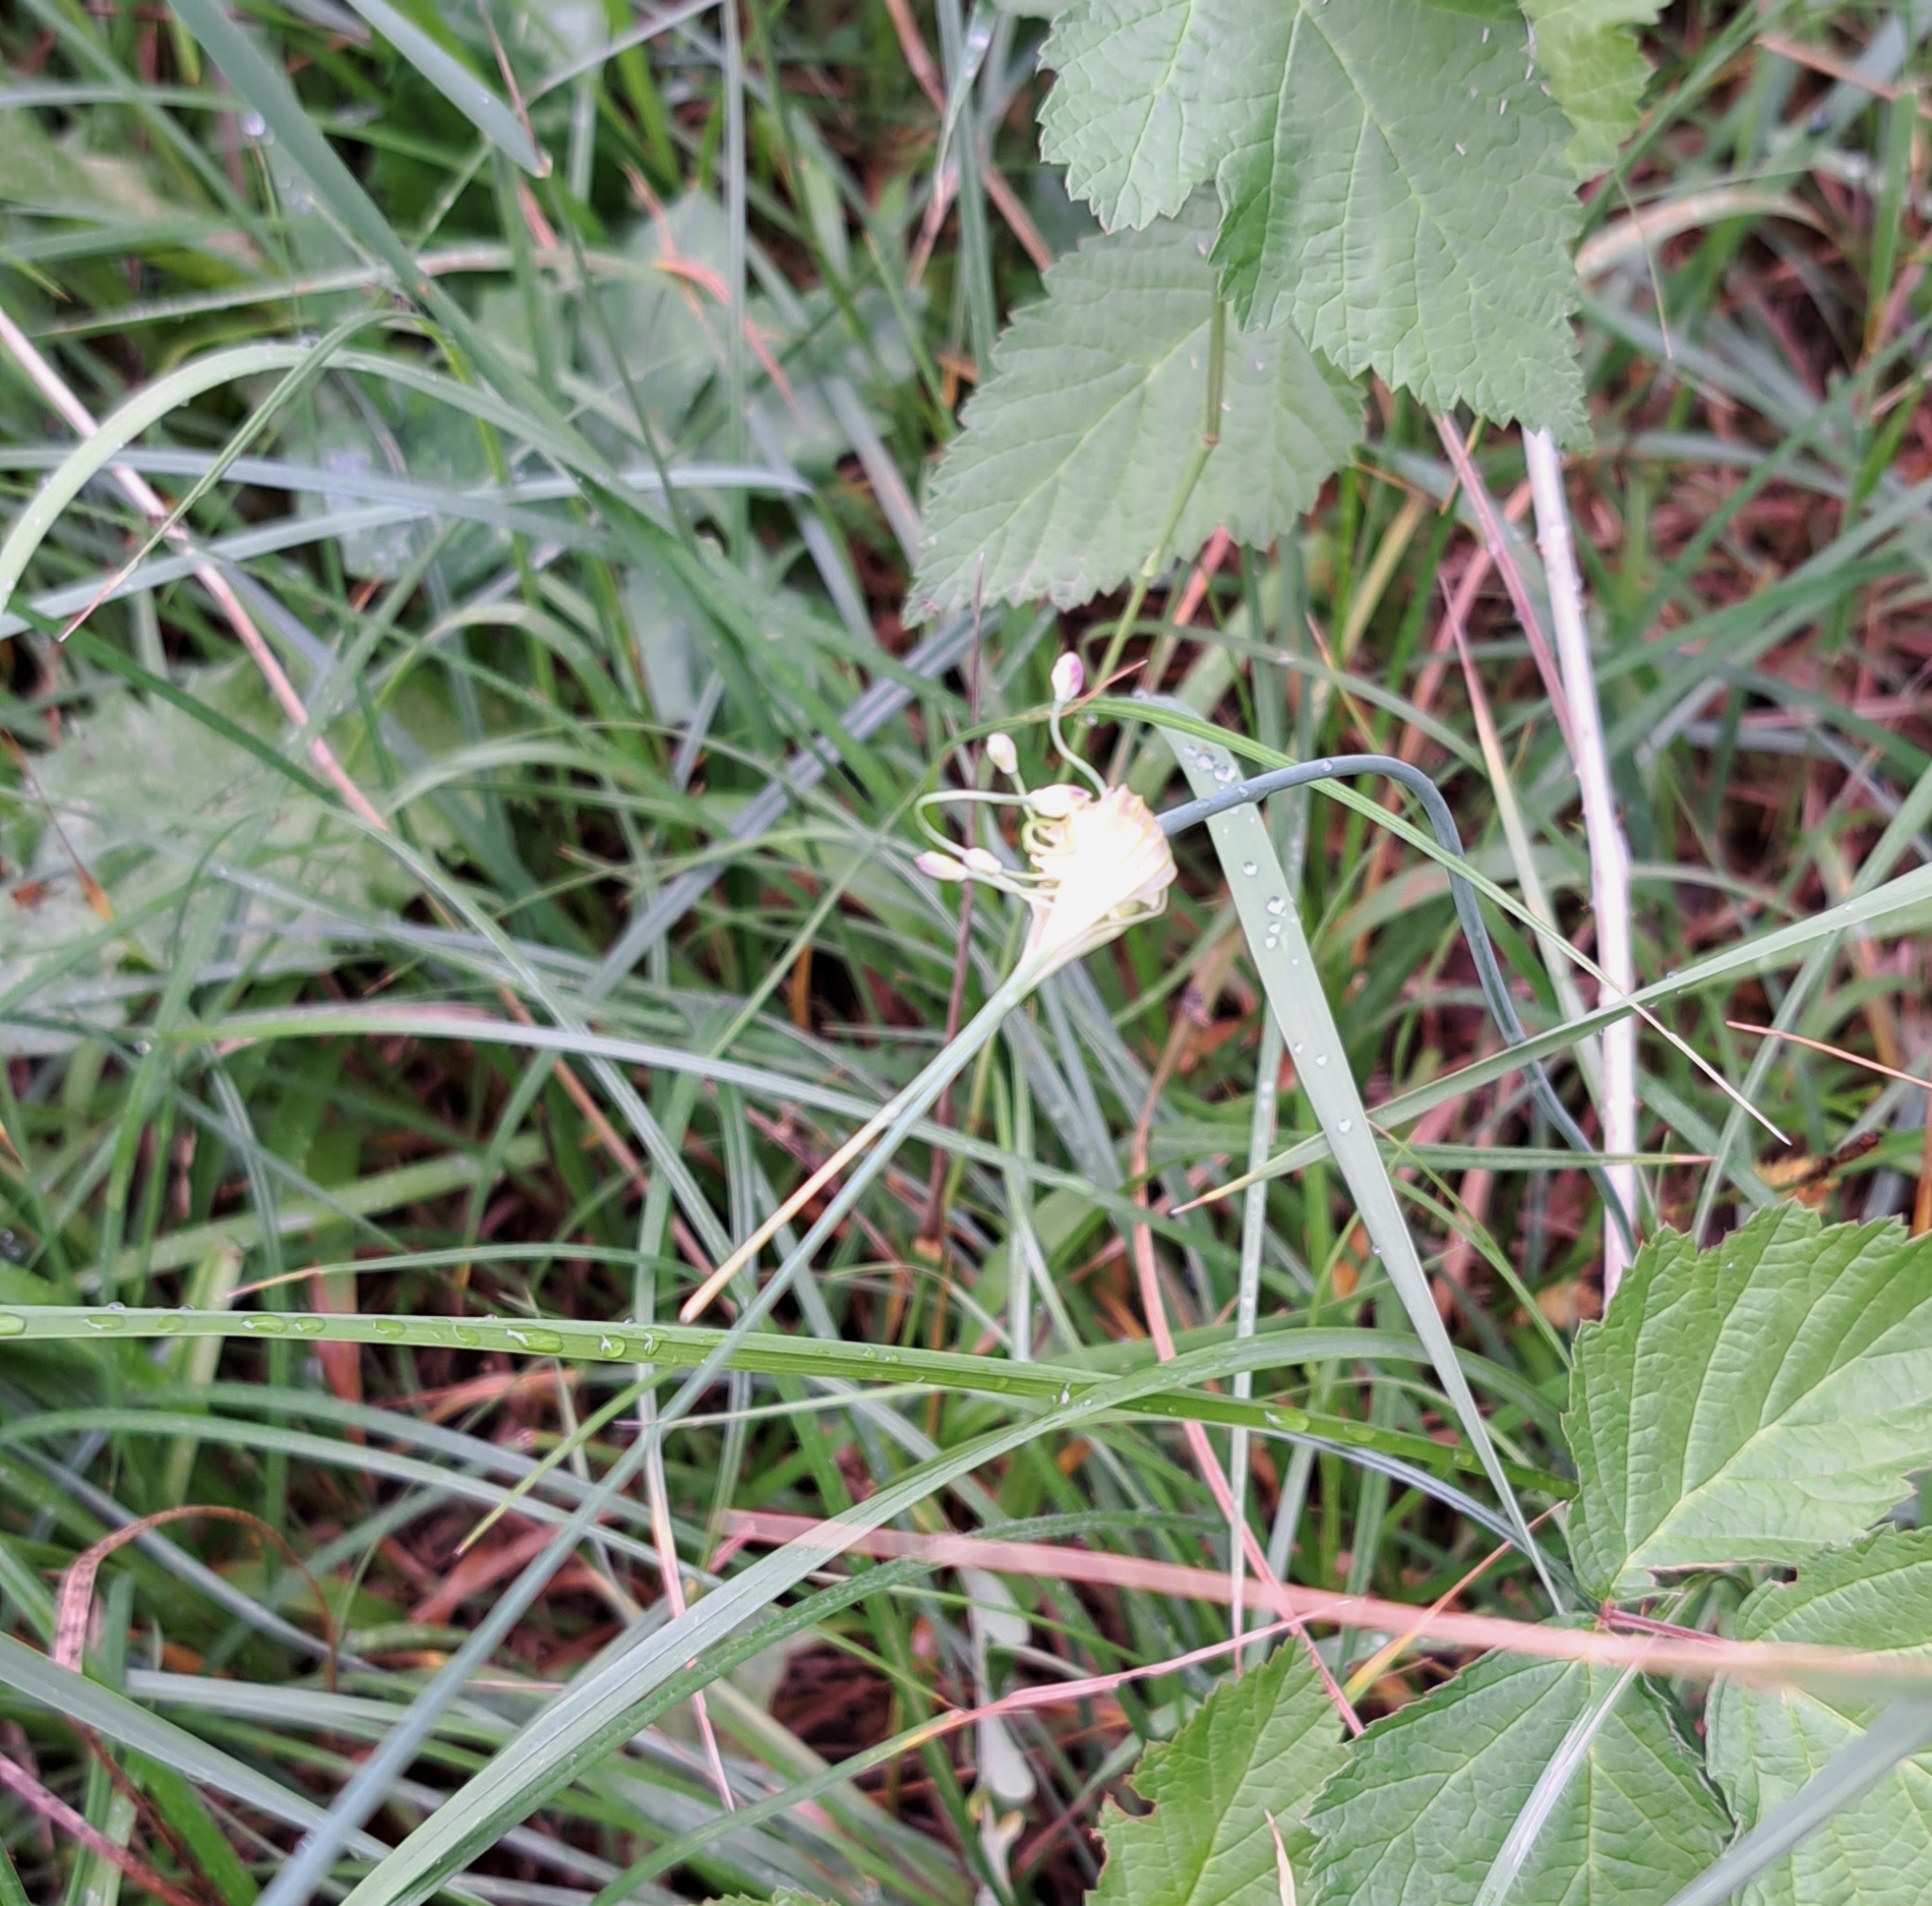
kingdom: Plantae
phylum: Tracheophyta
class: Liliopsida
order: Asparagales
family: Amaryllidaceae
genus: Allium
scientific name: Allium carinatum
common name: Keeled garlic
